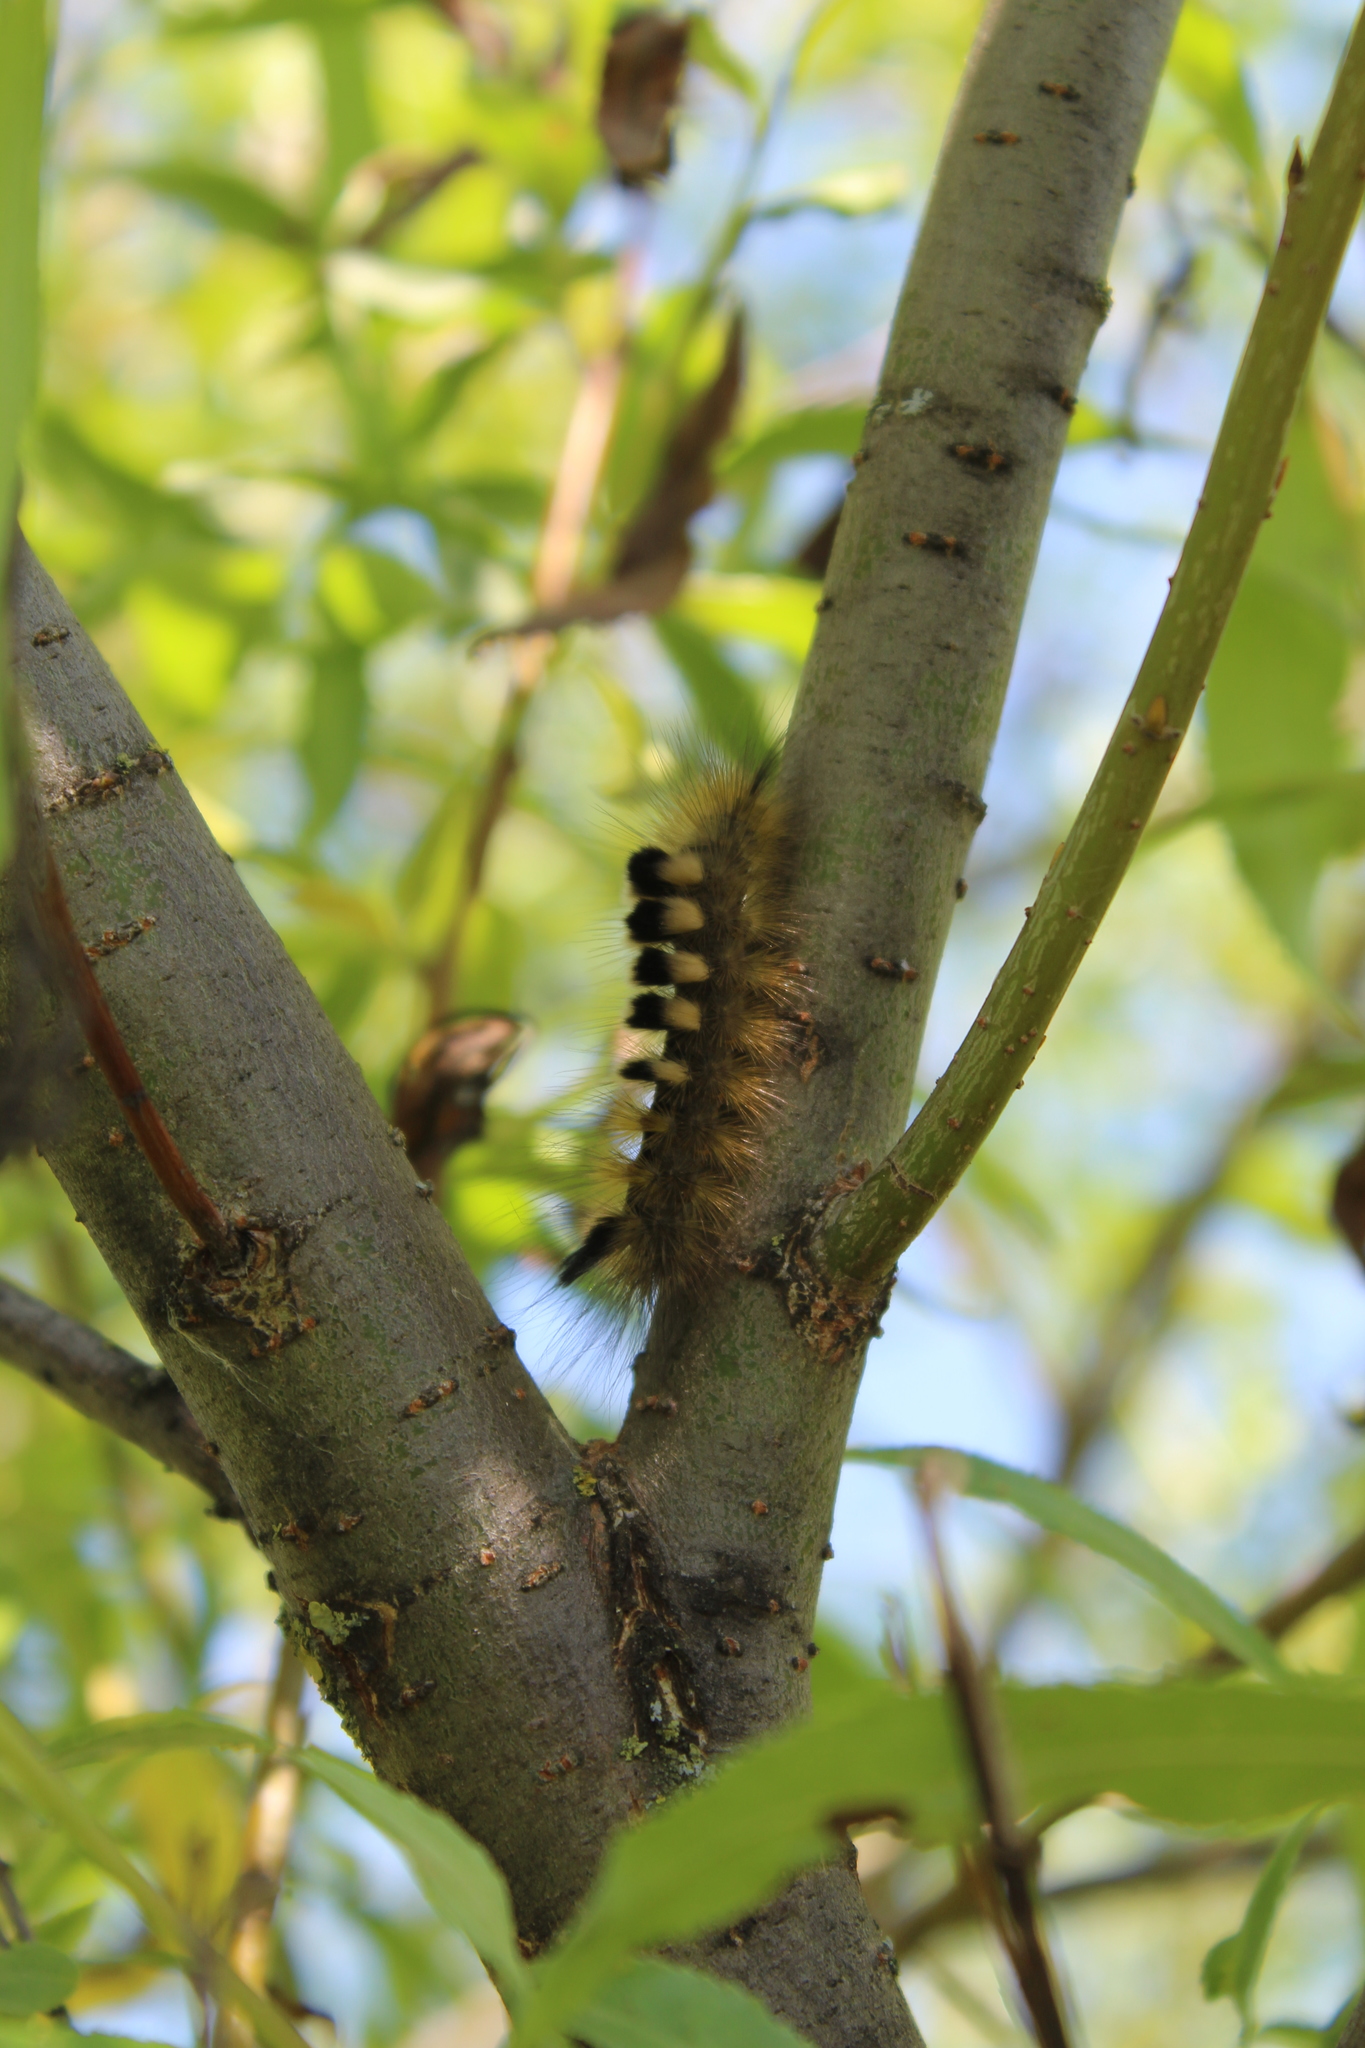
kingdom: Animalia
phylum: Arthropoda
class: Insecta
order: Lepidoptera
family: Erebidae
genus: Calliteara
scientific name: Calliteara Dicallomera fascelina
